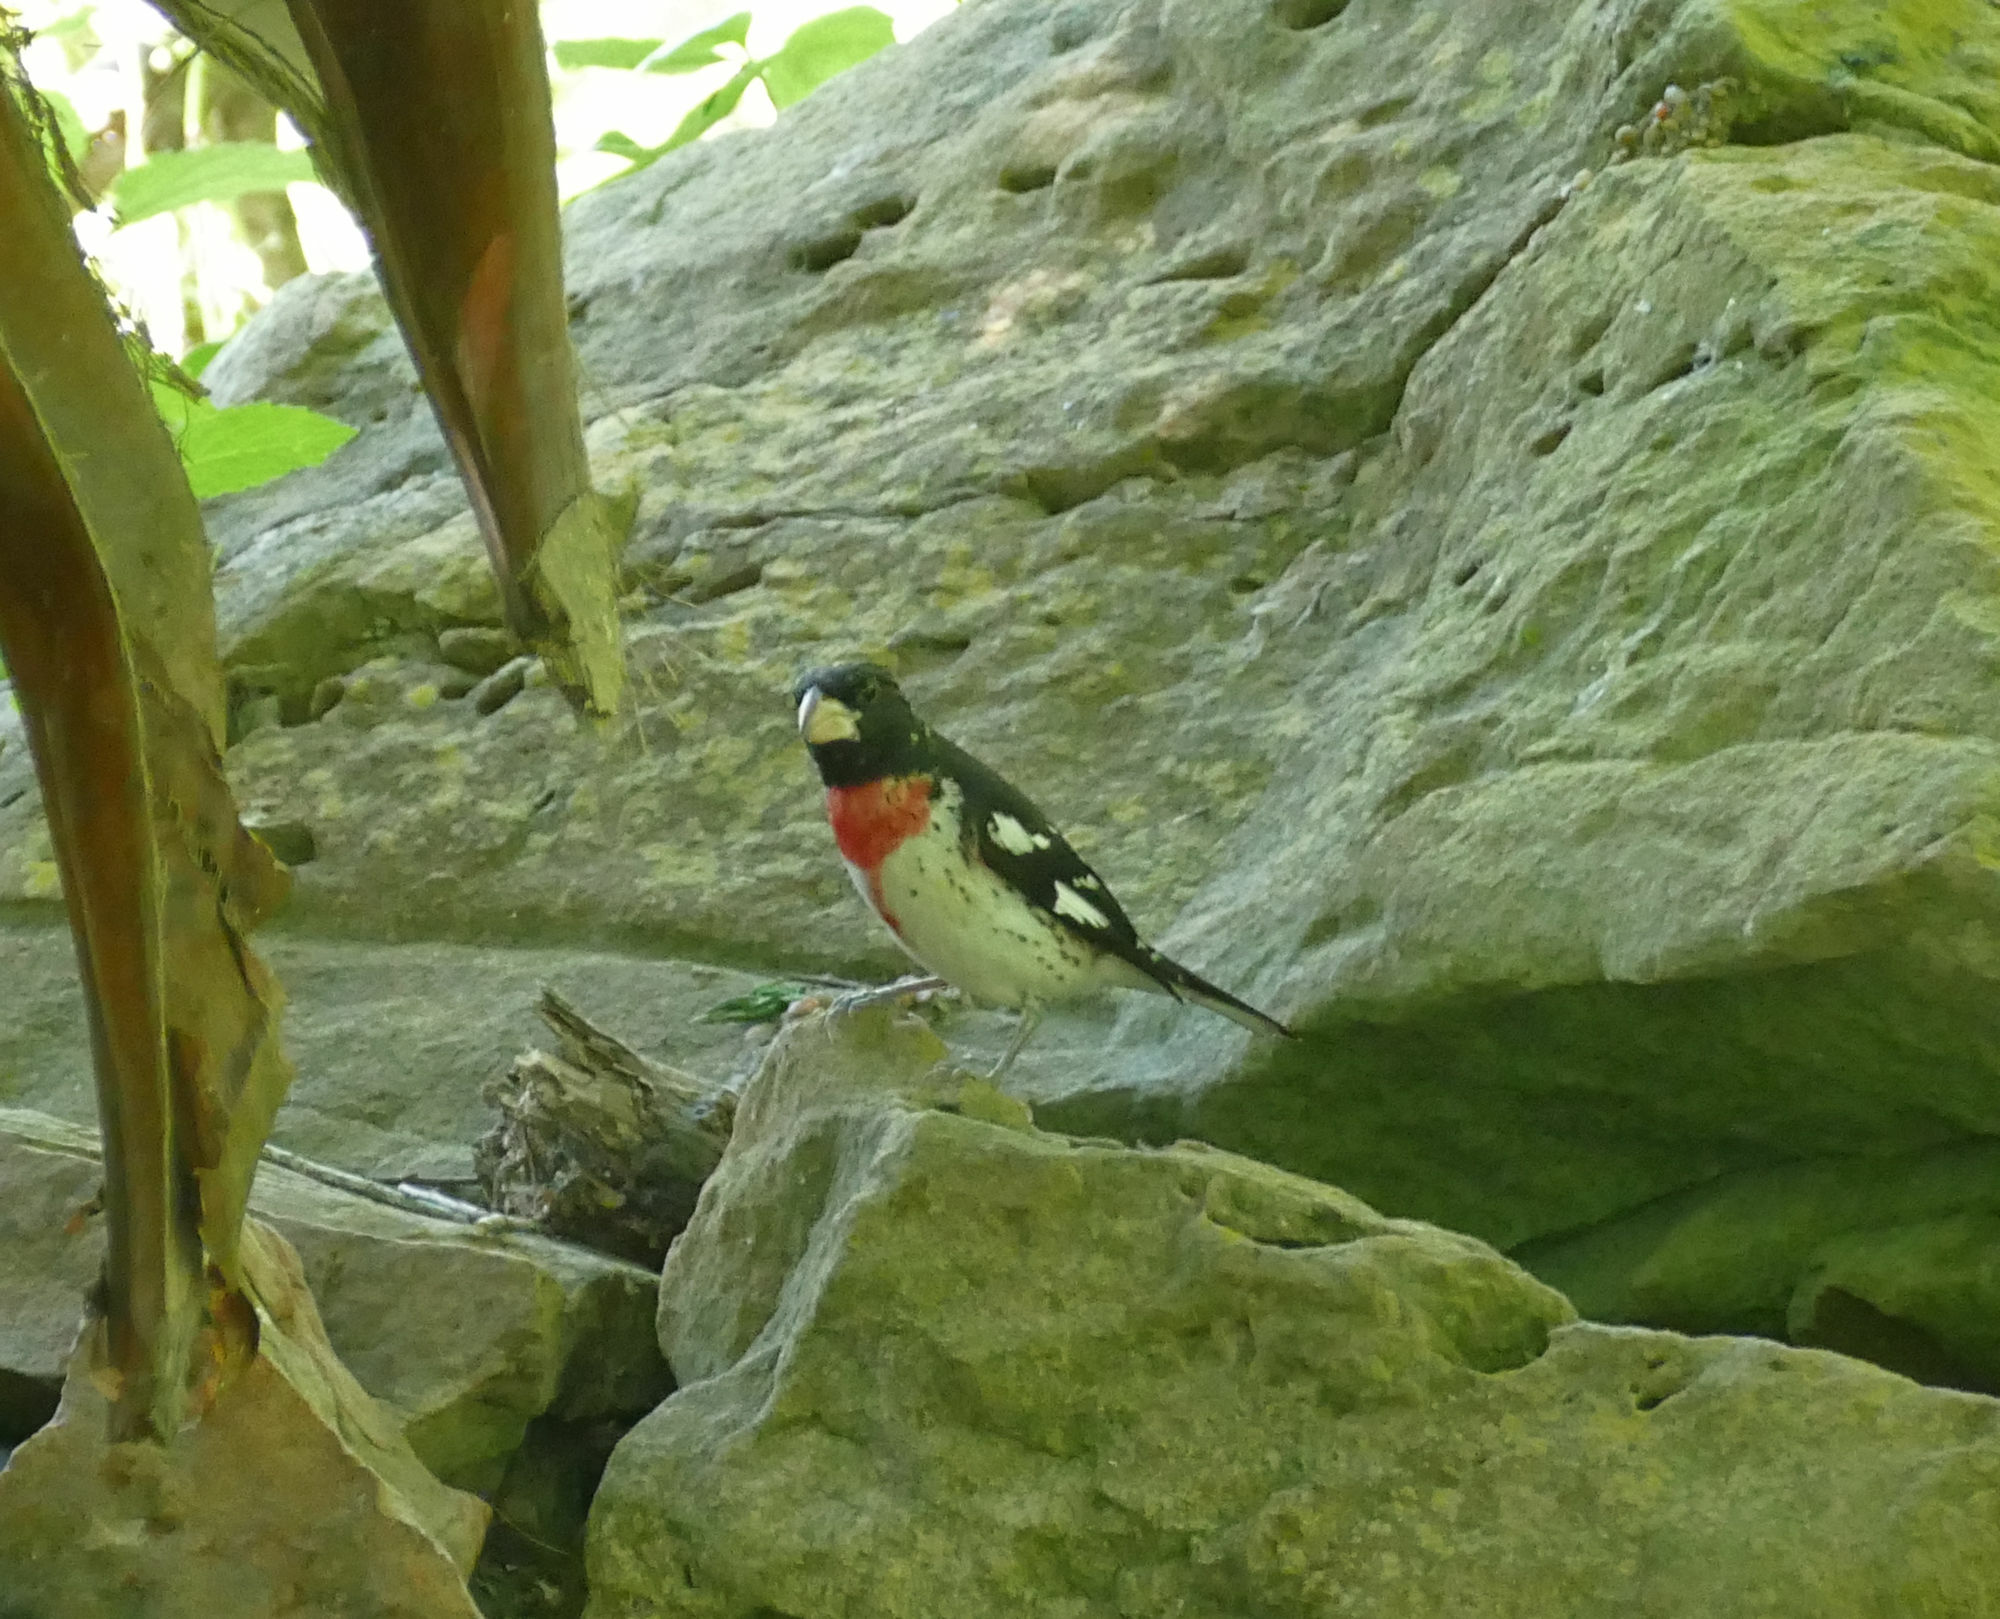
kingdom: Animalia
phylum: Chordata
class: Aves
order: Passeriformes
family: Cardinalidae
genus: Pheucticus
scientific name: Pheucticus ludovicianus
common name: Rose-breasted grosbeak
